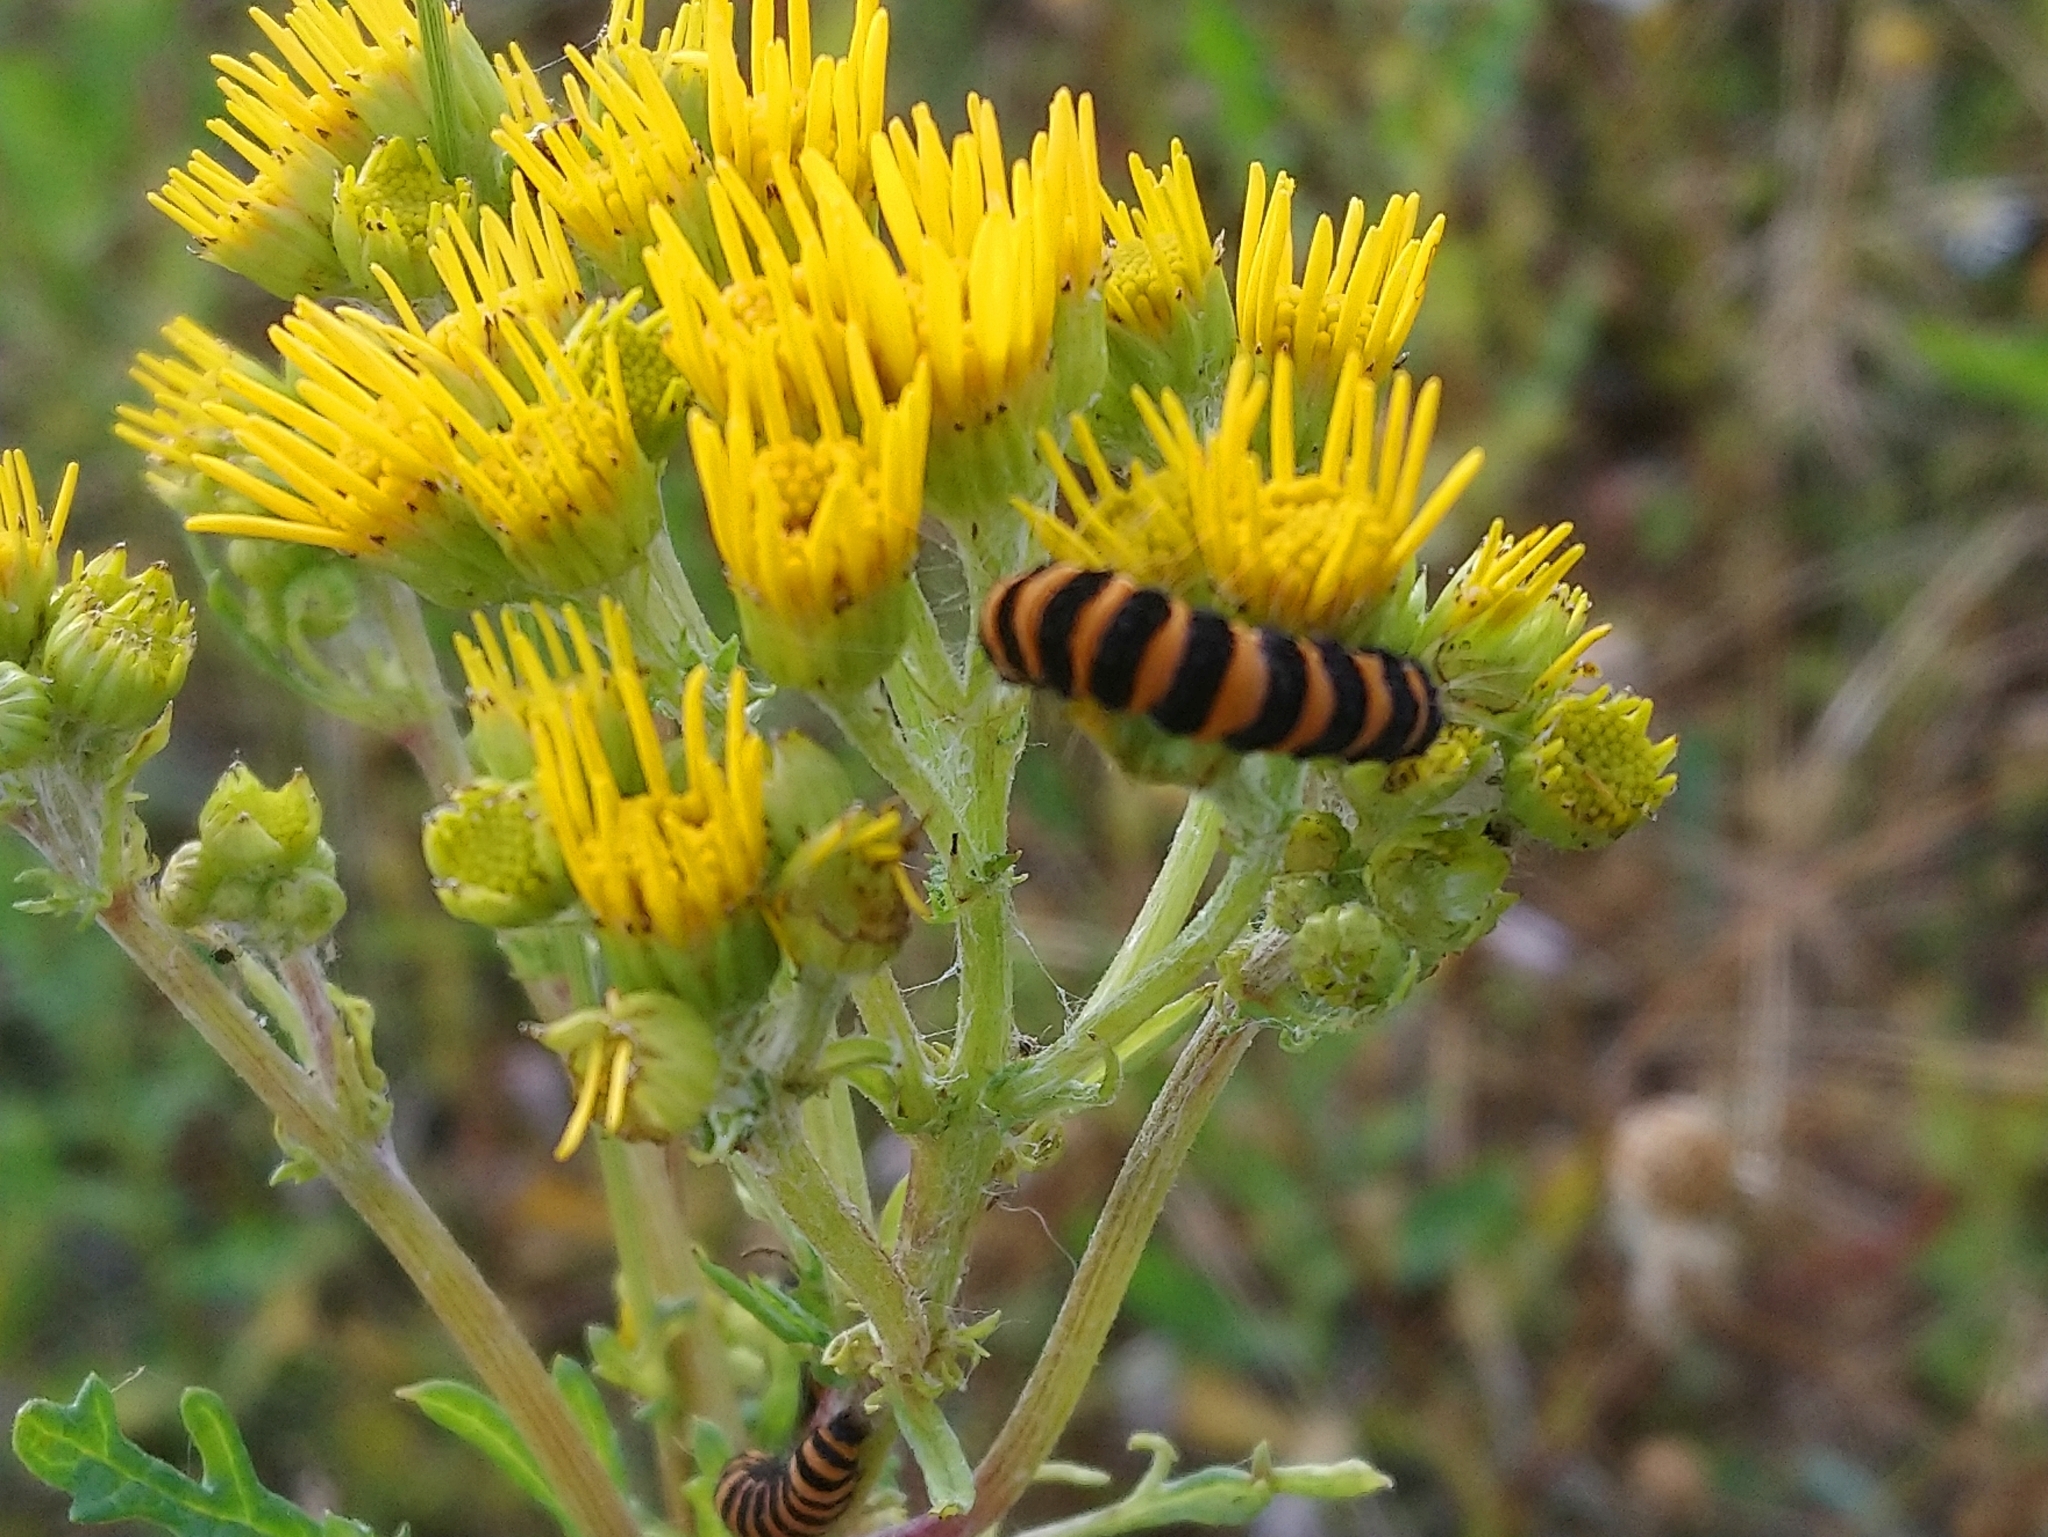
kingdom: Animalia
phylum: Arthropoda
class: Insecta
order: Lepidoptera
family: Erebidae
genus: Tyria
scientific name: Tyria jacobaeae
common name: Cinnabar
